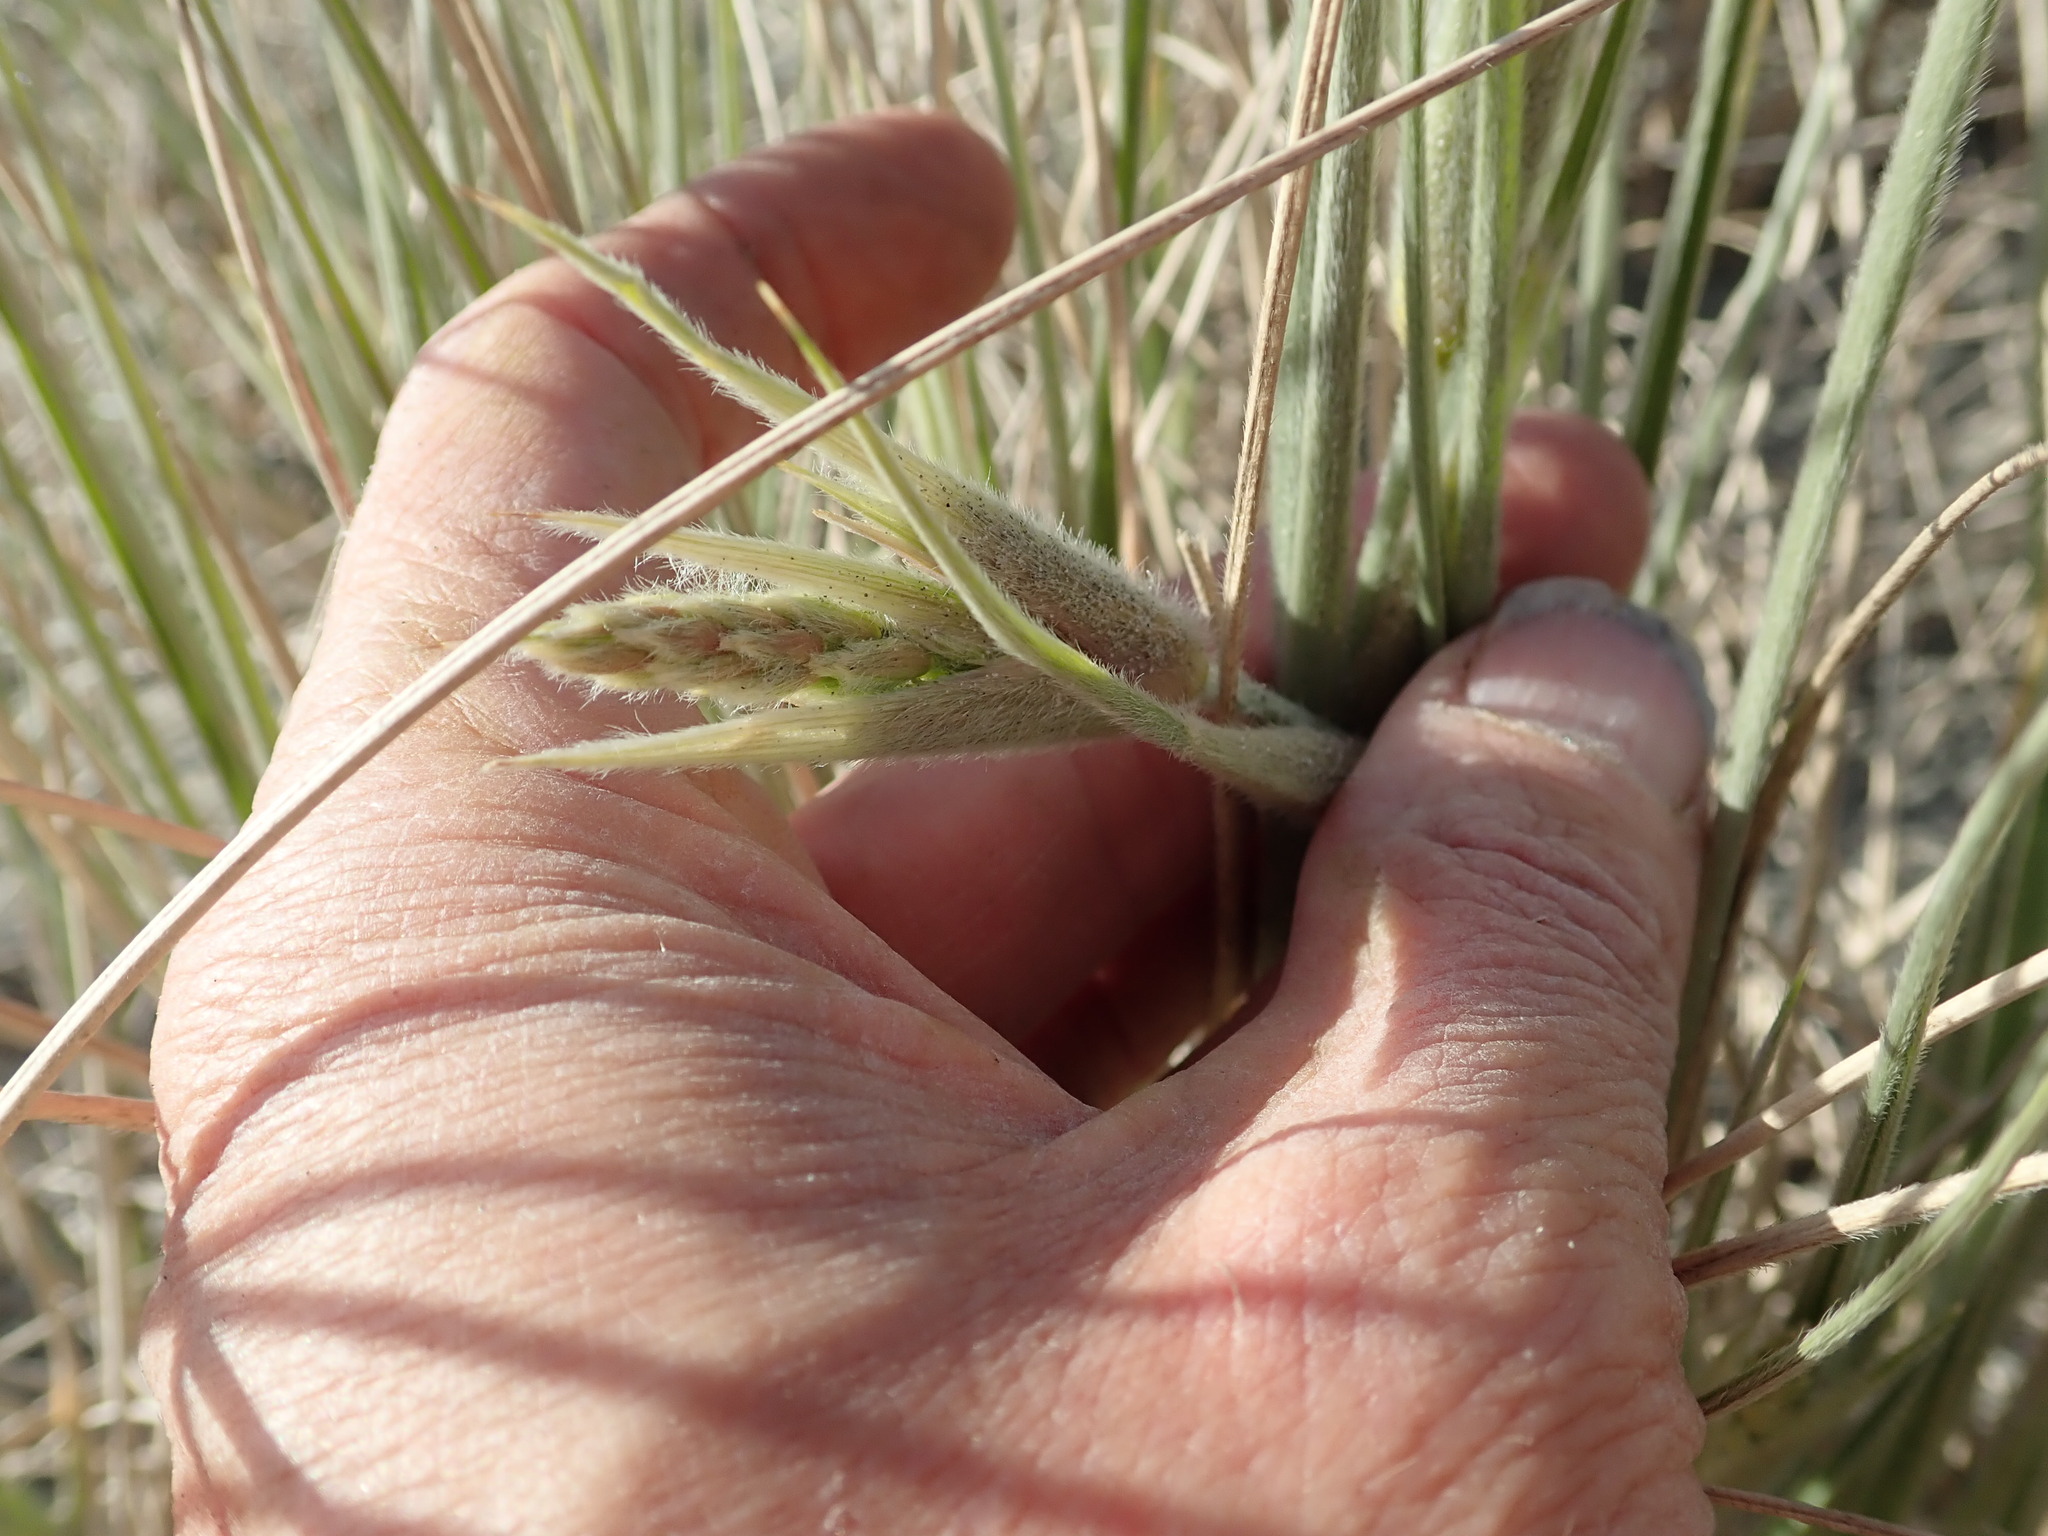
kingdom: Plantae
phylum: Tracheophyta
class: Liliopsida
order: Poales
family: Poaceae
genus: Spinifex
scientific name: Spinifex sericeus
